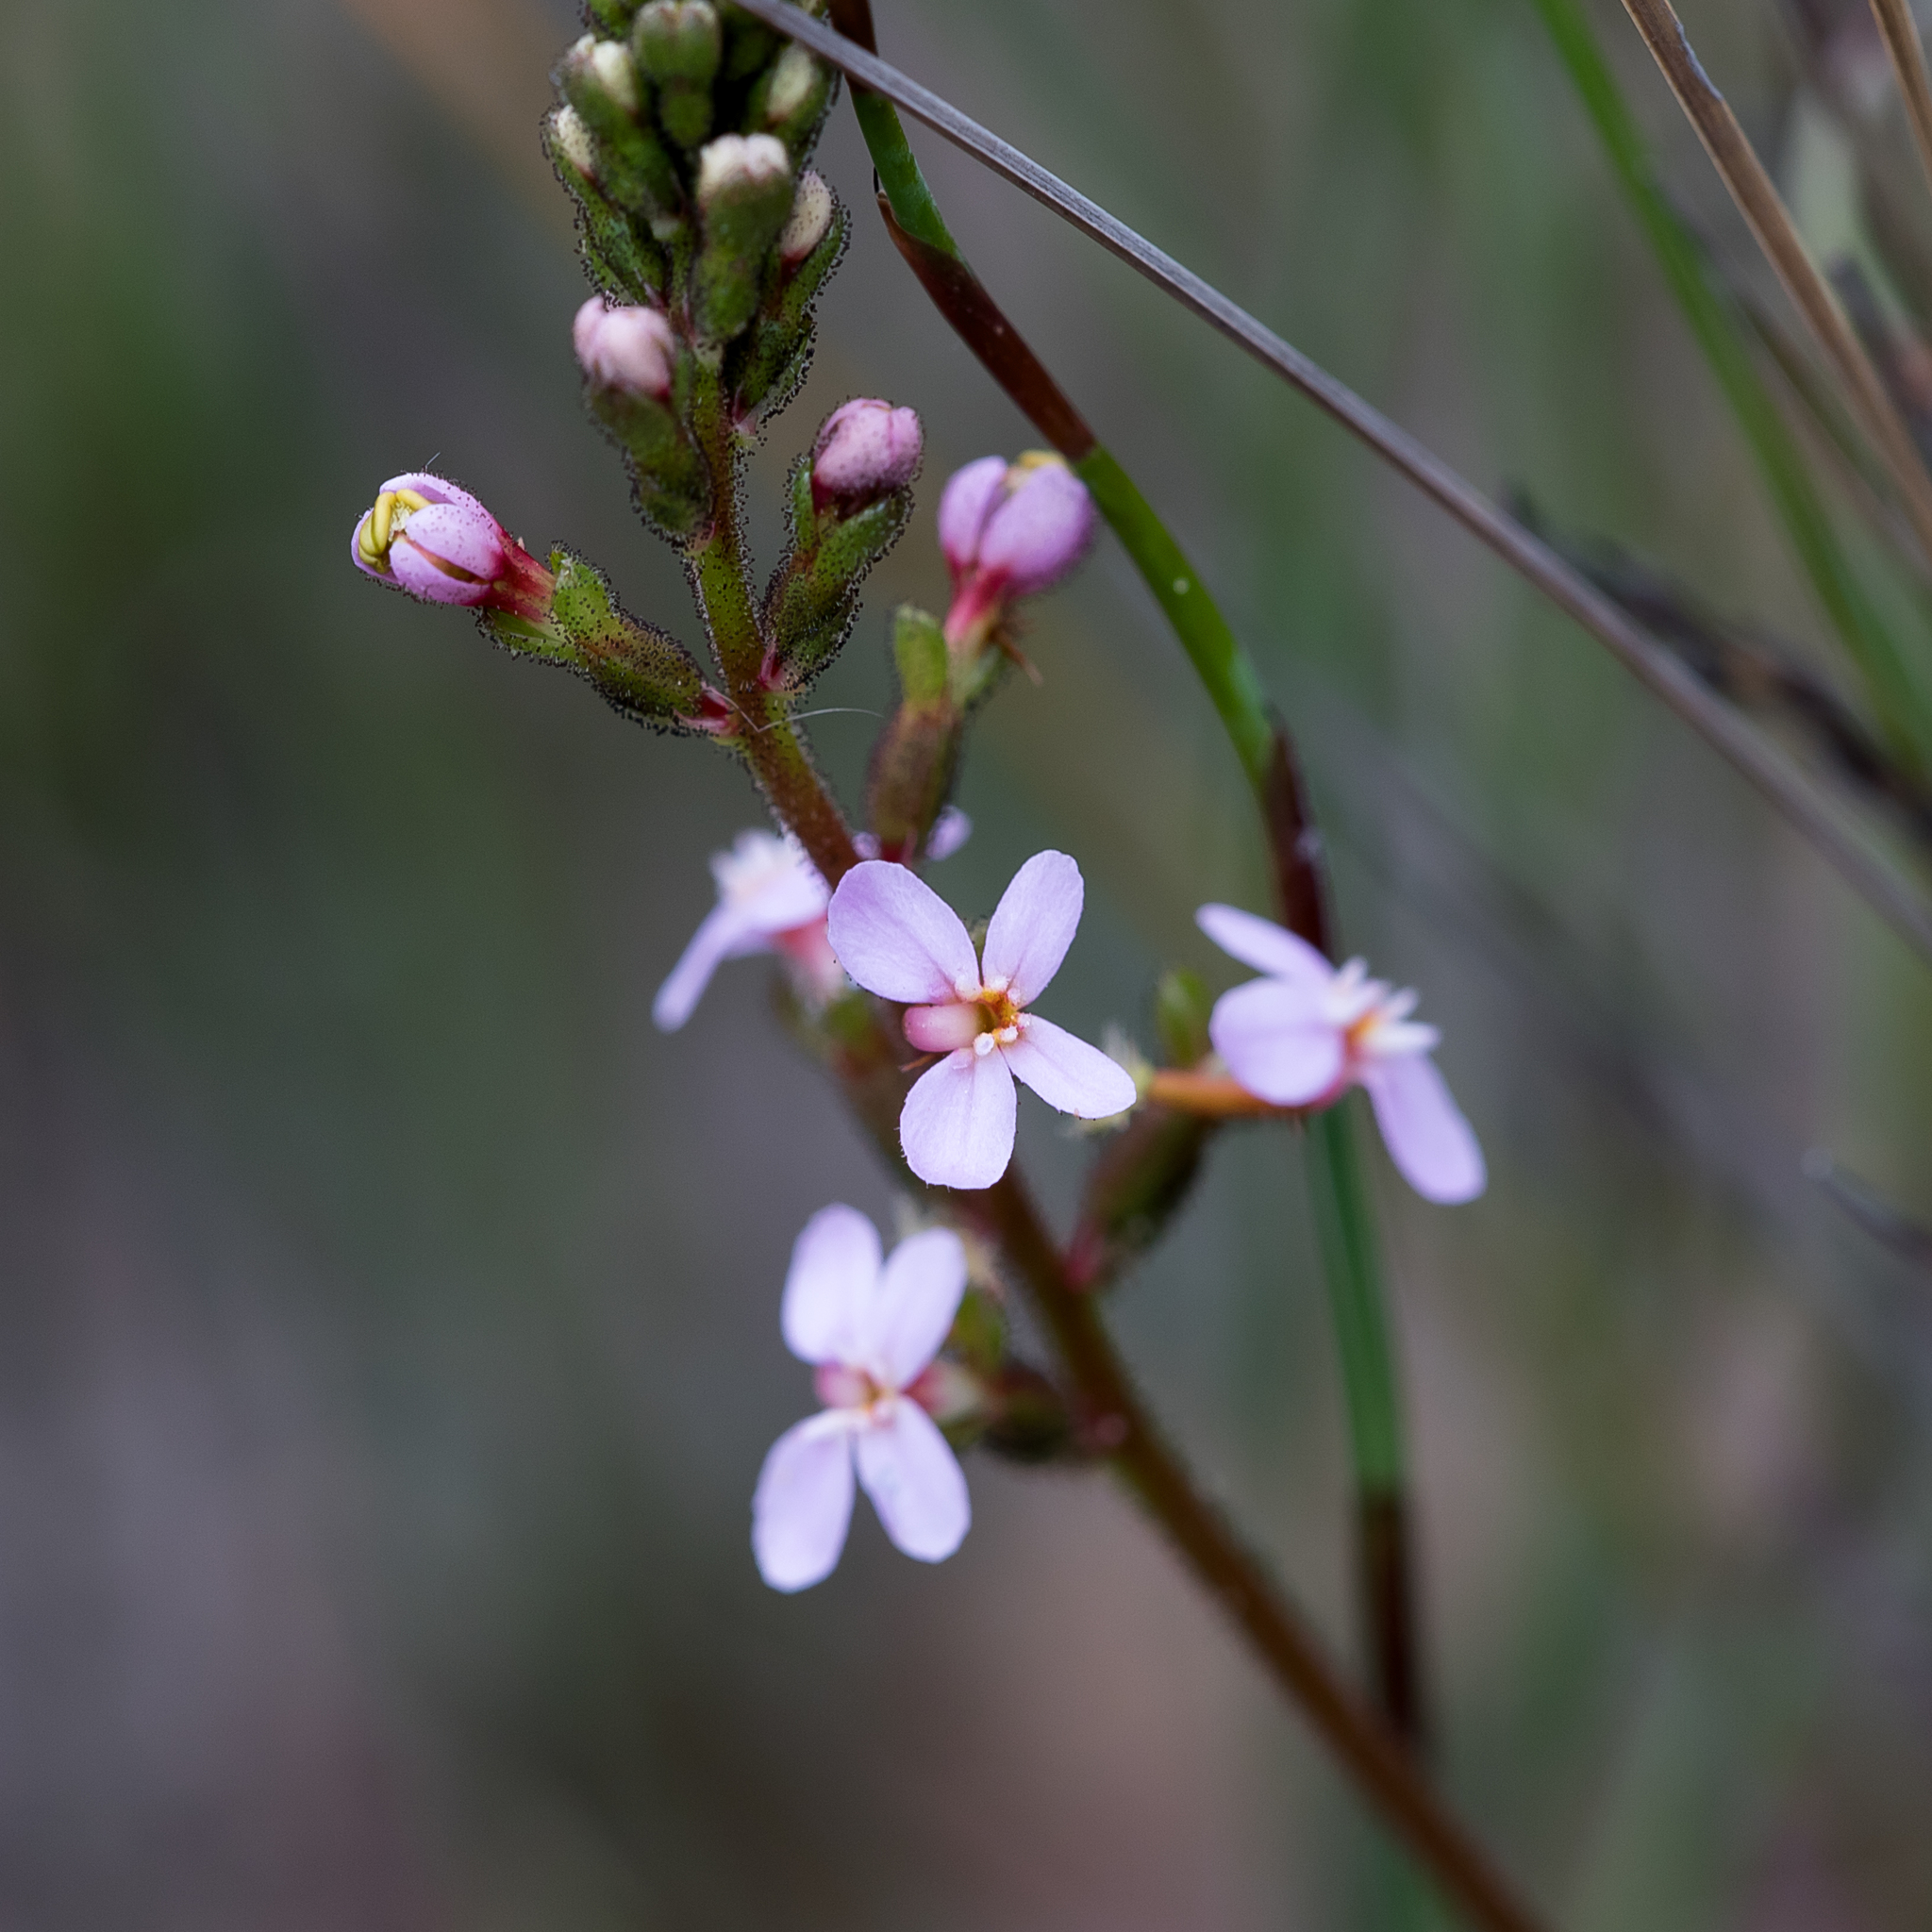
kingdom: Plantae
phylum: Tracheophyta
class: Magnoliopsida
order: Asterales
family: Stylidiaceae
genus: Stylidium
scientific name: Stylidium graminifolium
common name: Grass triggerplant
